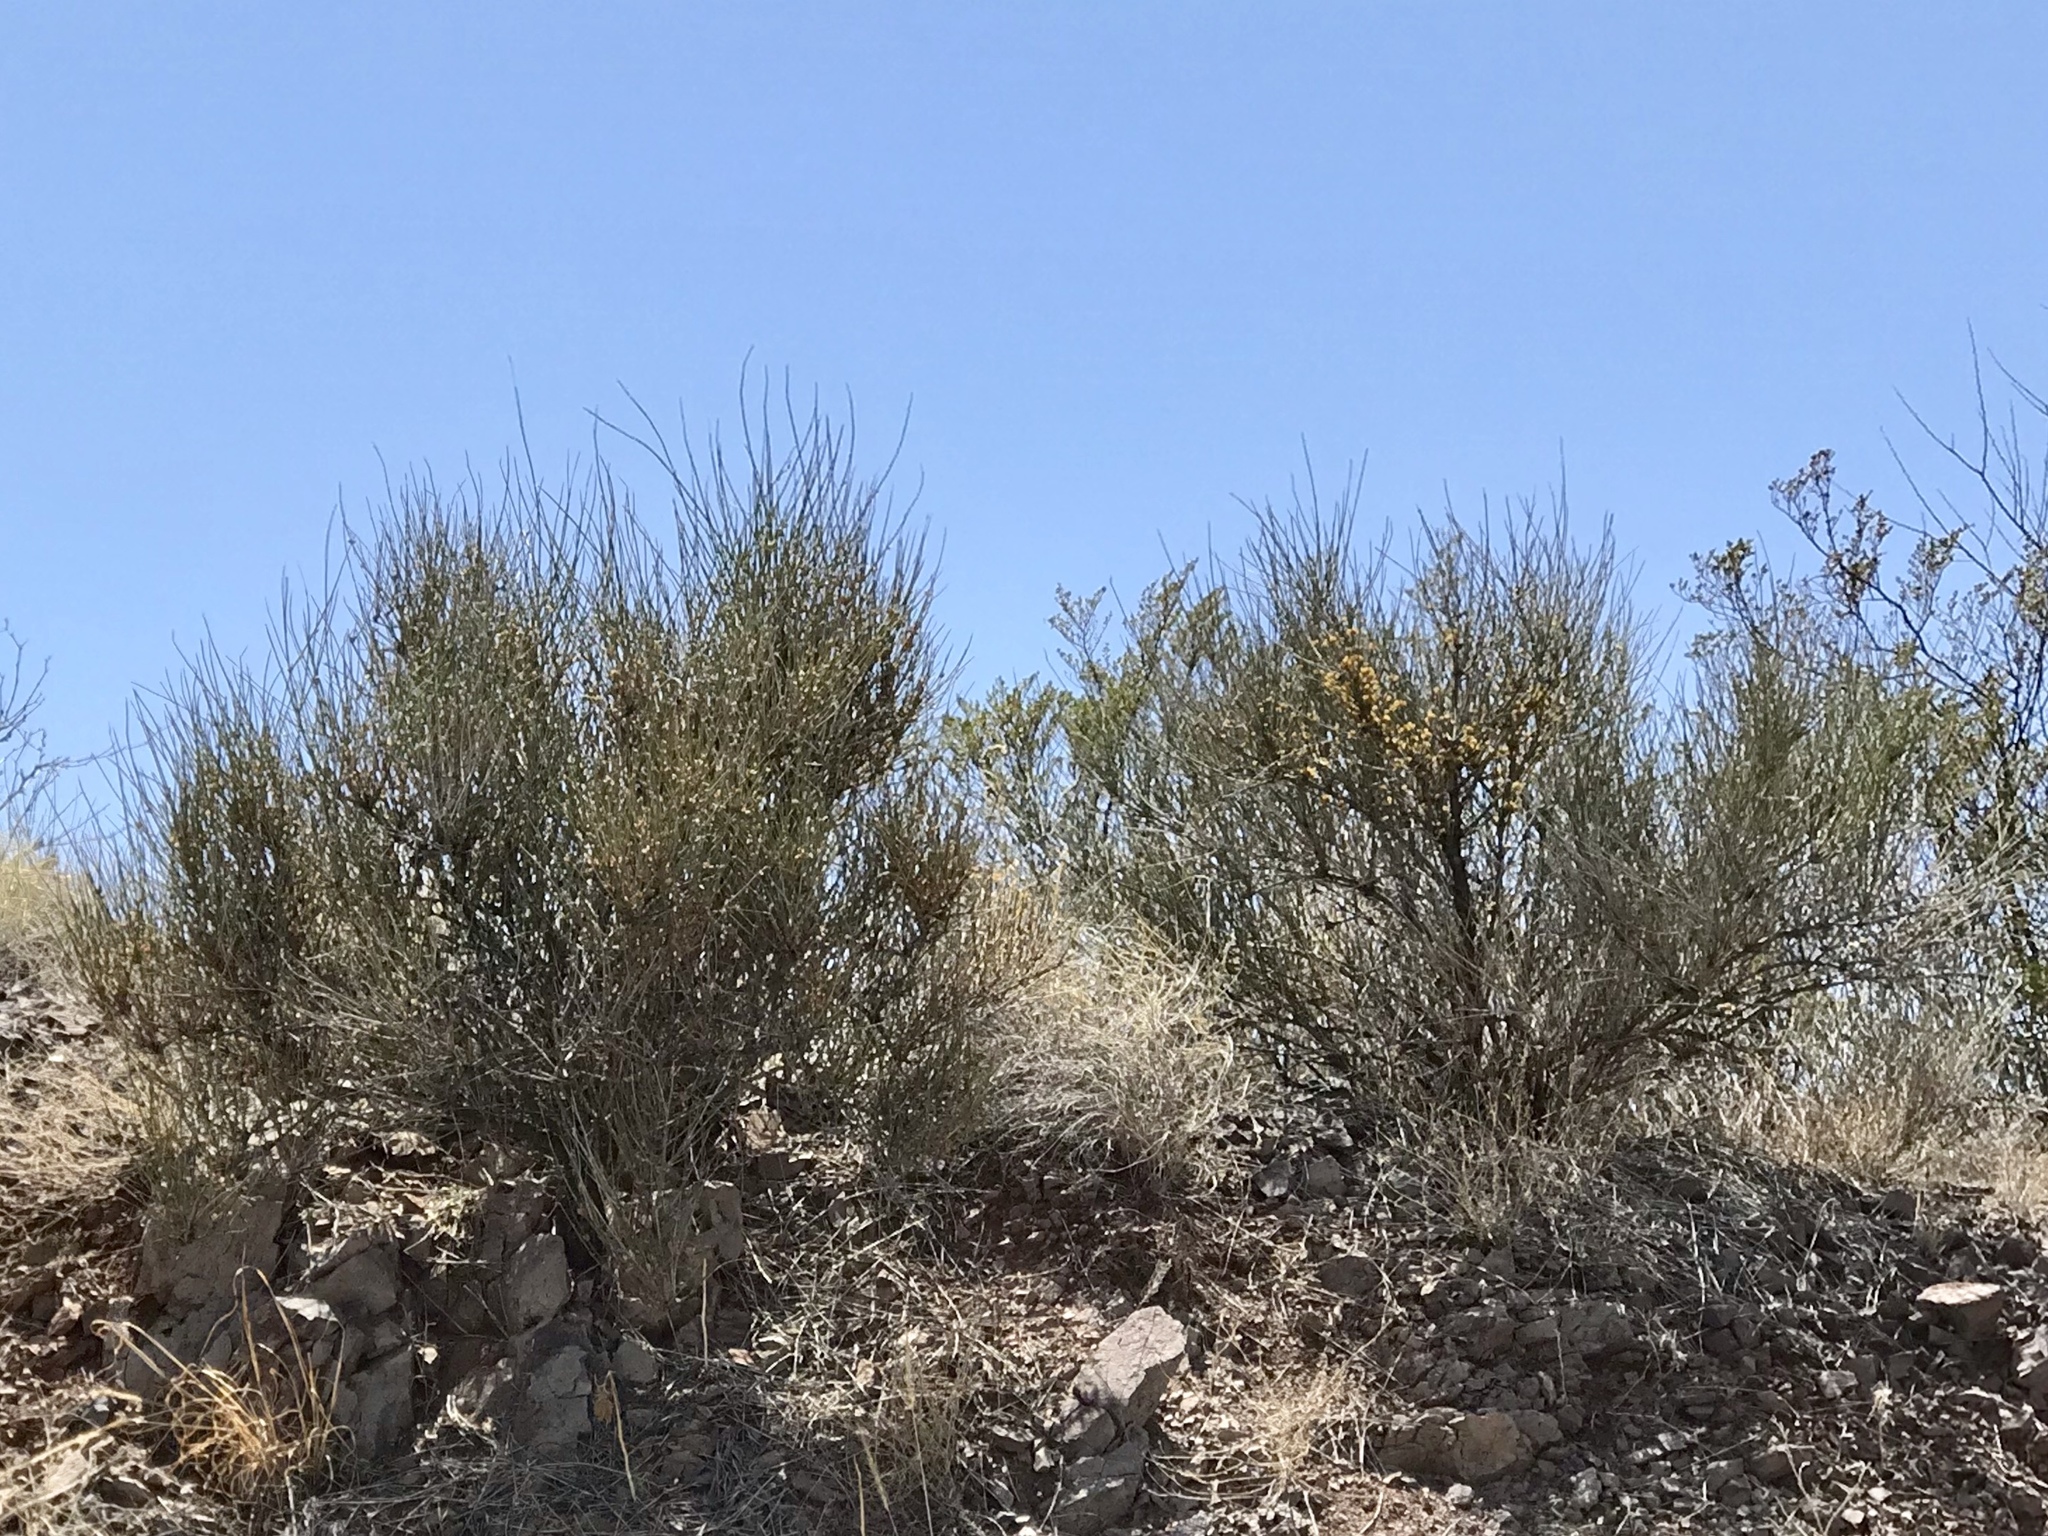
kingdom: Plantae
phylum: Tracheophyta
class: Gnetopsida
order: Ephedrales
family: Ephedraceae
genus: Ephedra
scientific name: Ephedra trifurca
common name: Mexican-tea
